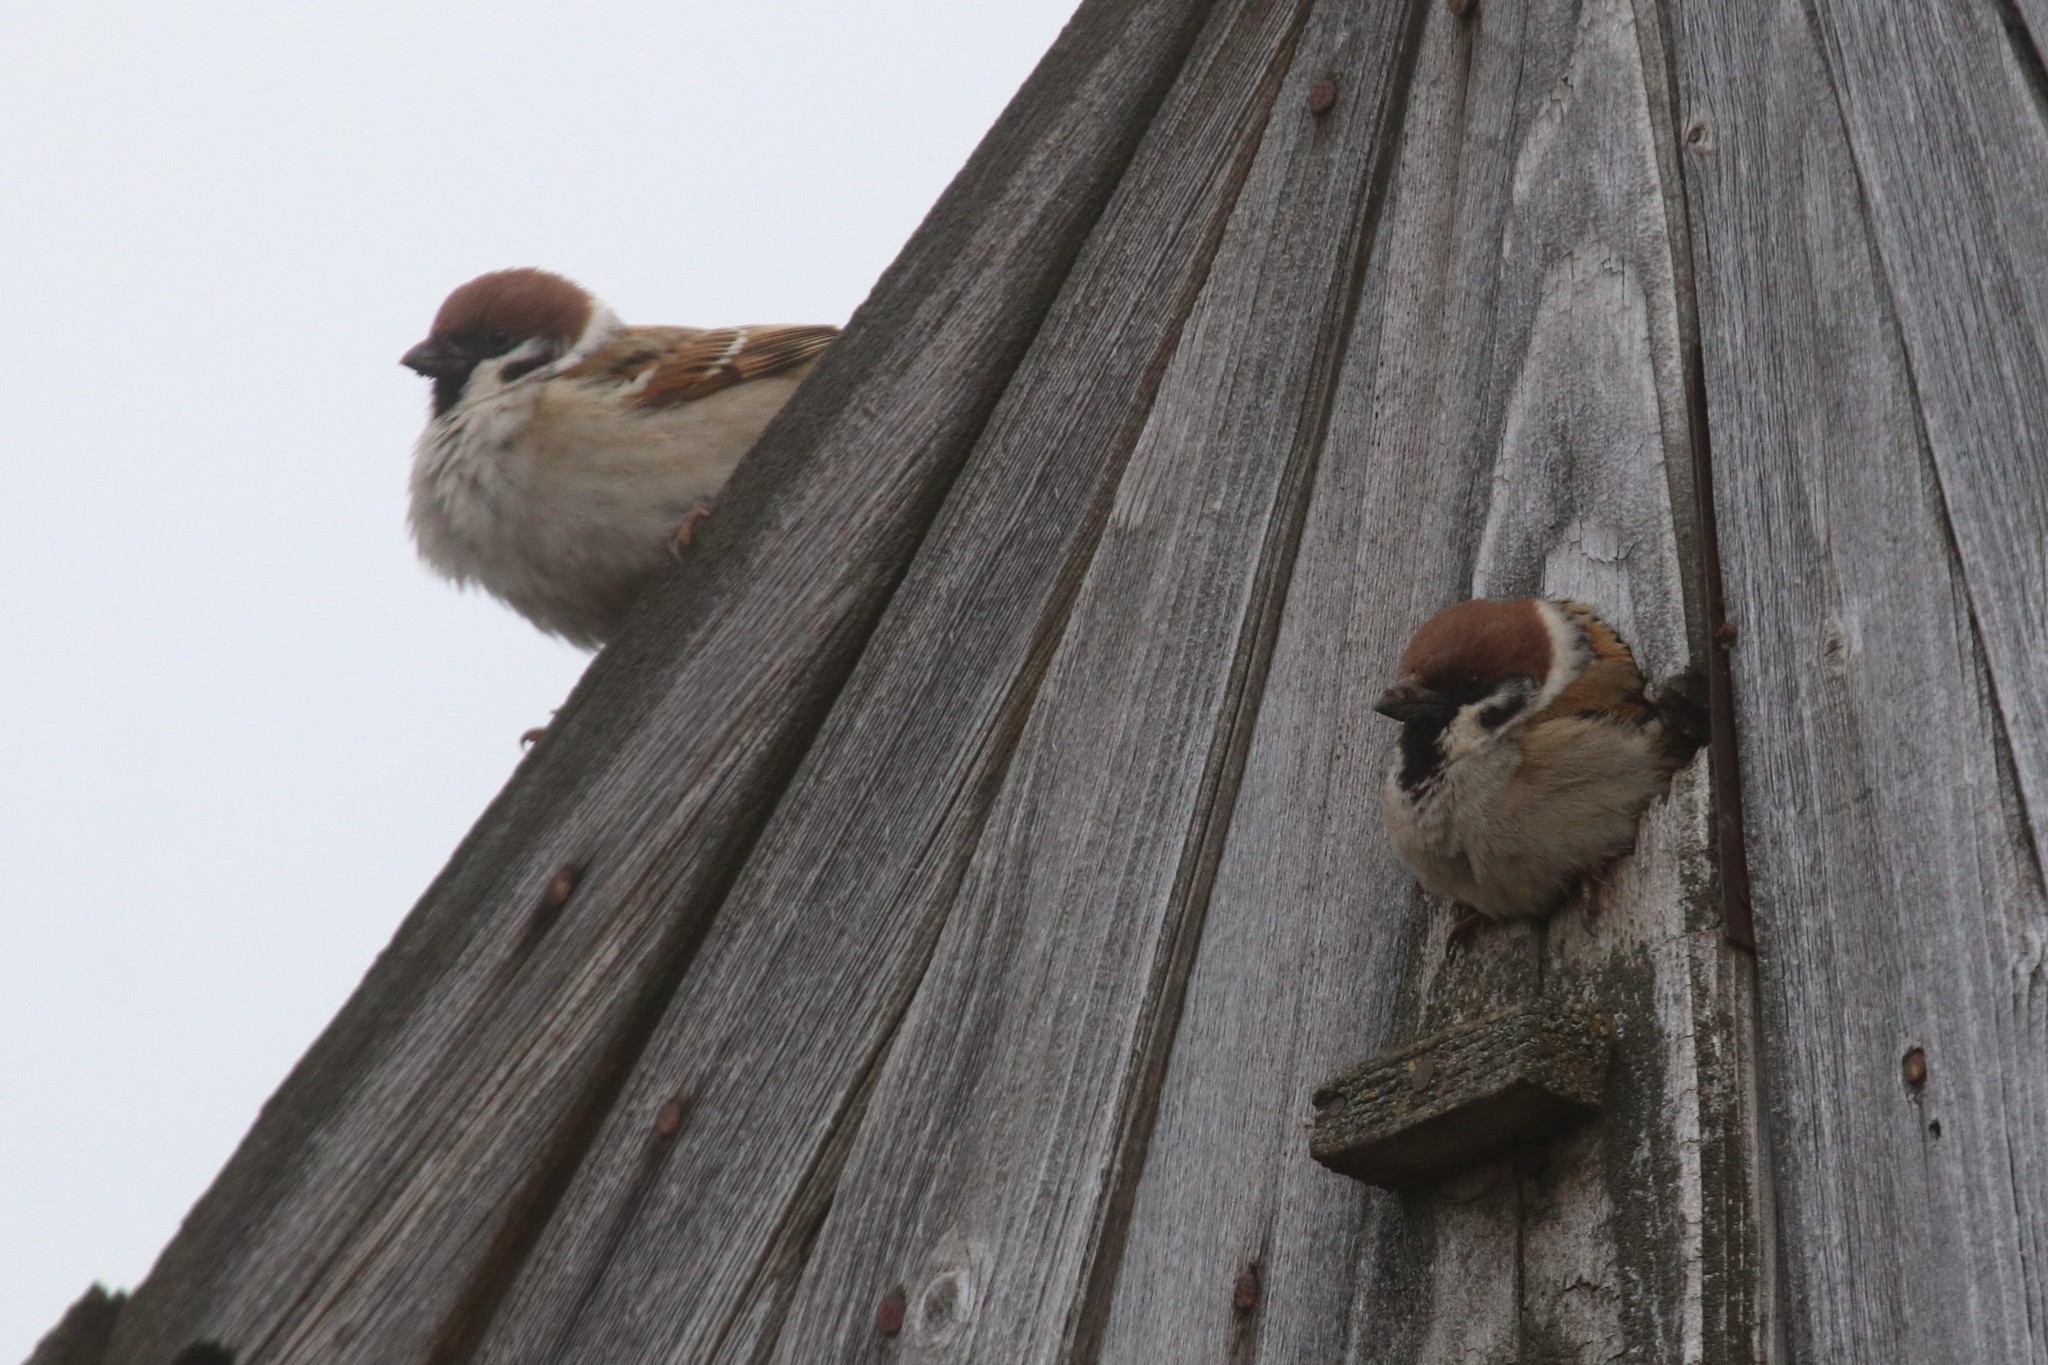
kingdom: Animalia
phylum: Chordata
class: Aves
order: Passeriformes
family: Passeridae
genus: Passer
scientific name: Passer montanus
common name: Eurasian tree sparrow
